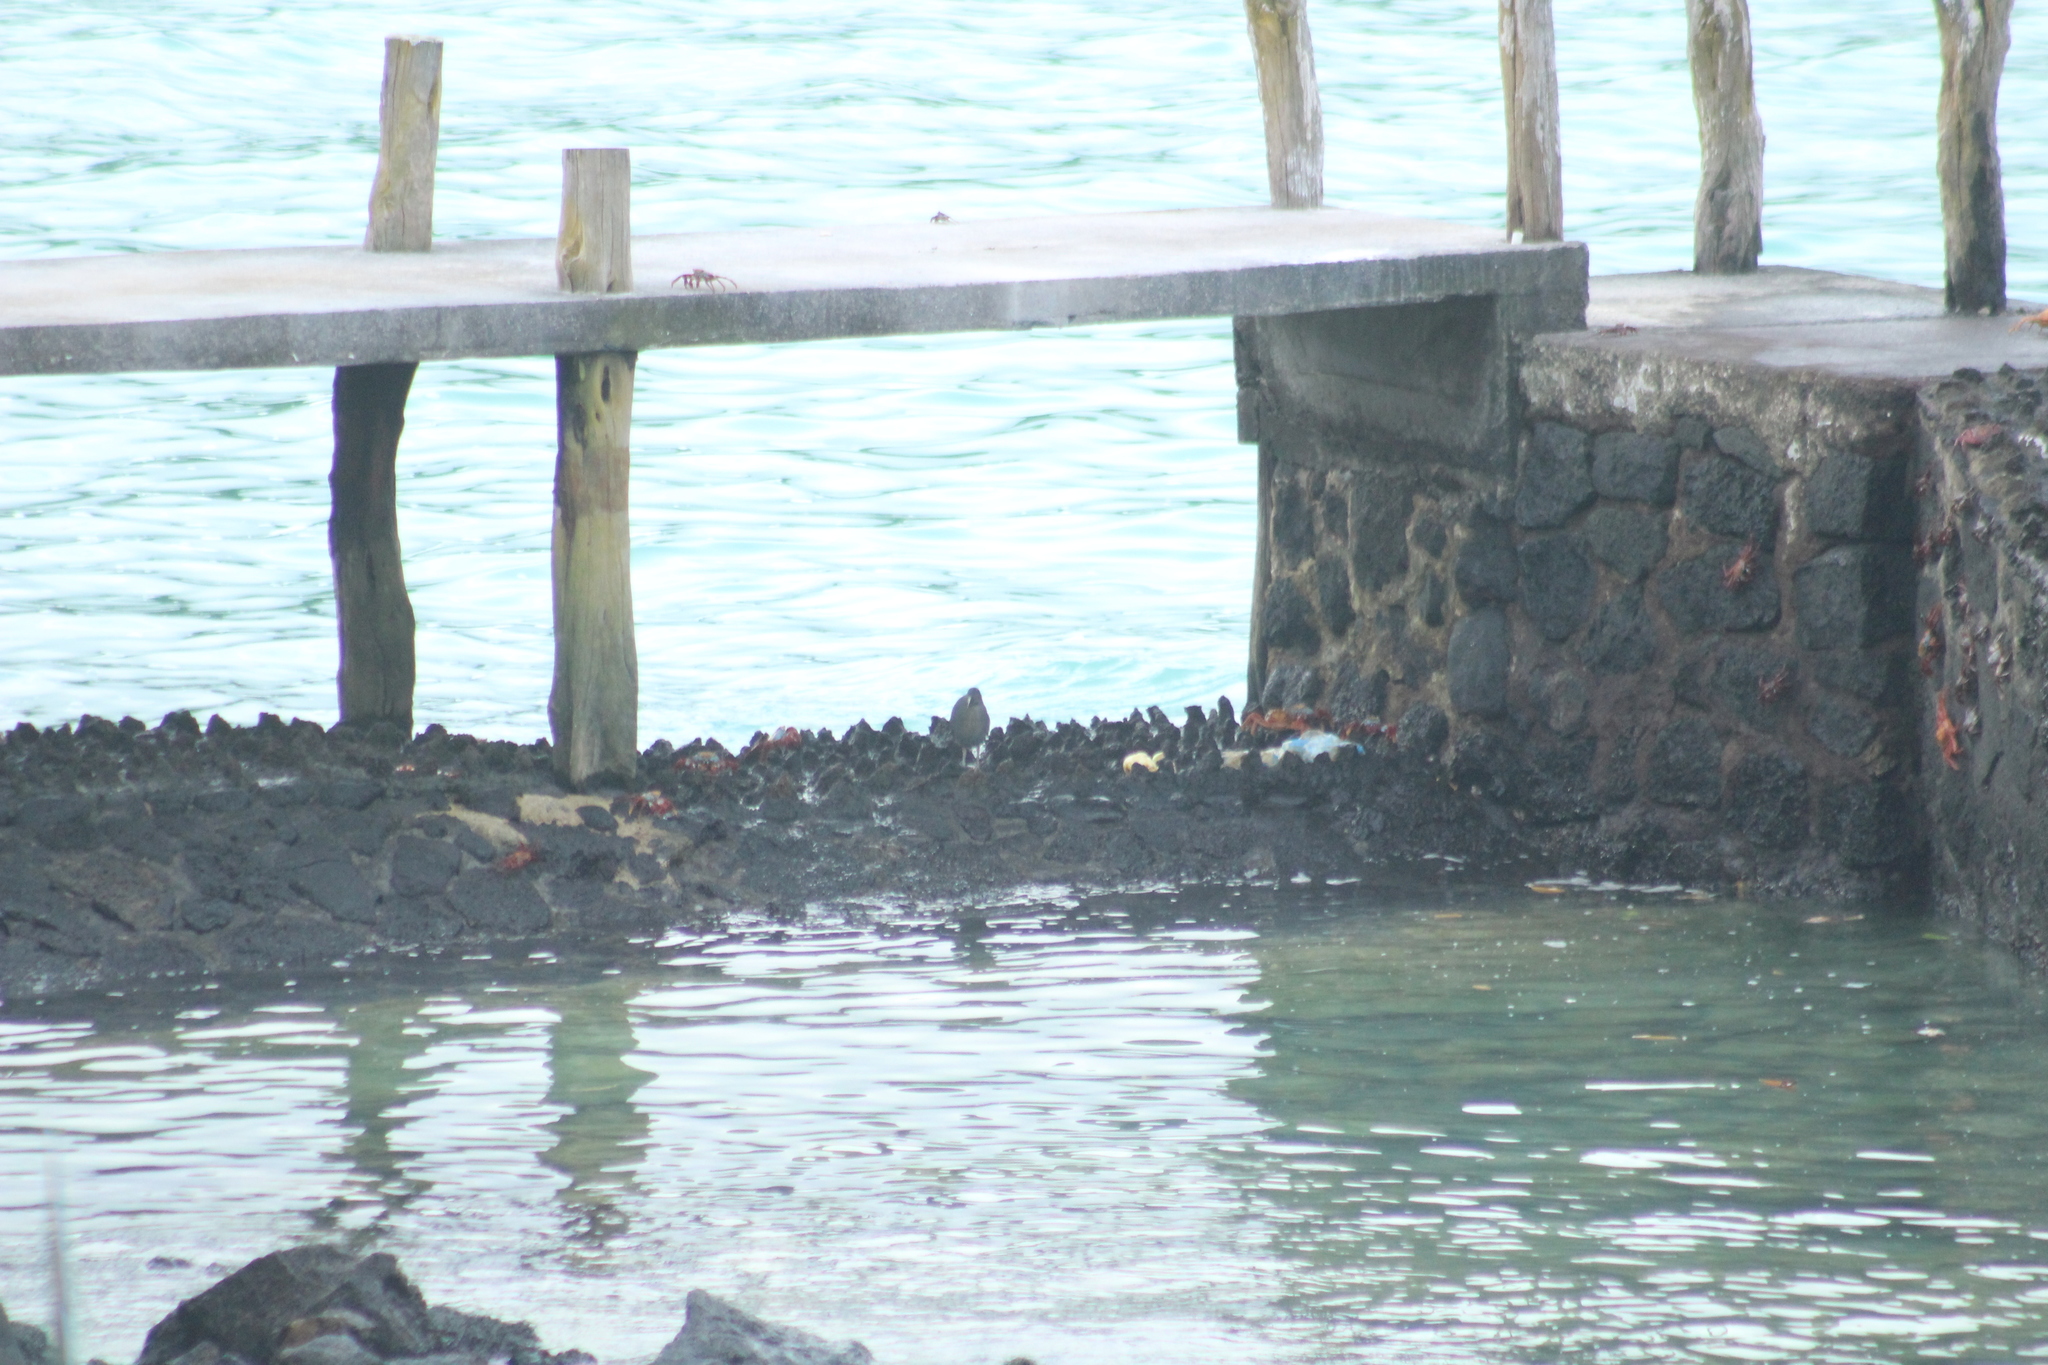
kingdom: Animalia
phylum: Chordata
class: Aves
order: Pelecaniformes
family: Ardeidae
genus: Butorides
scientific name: Butorides striata
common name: Striated heron
